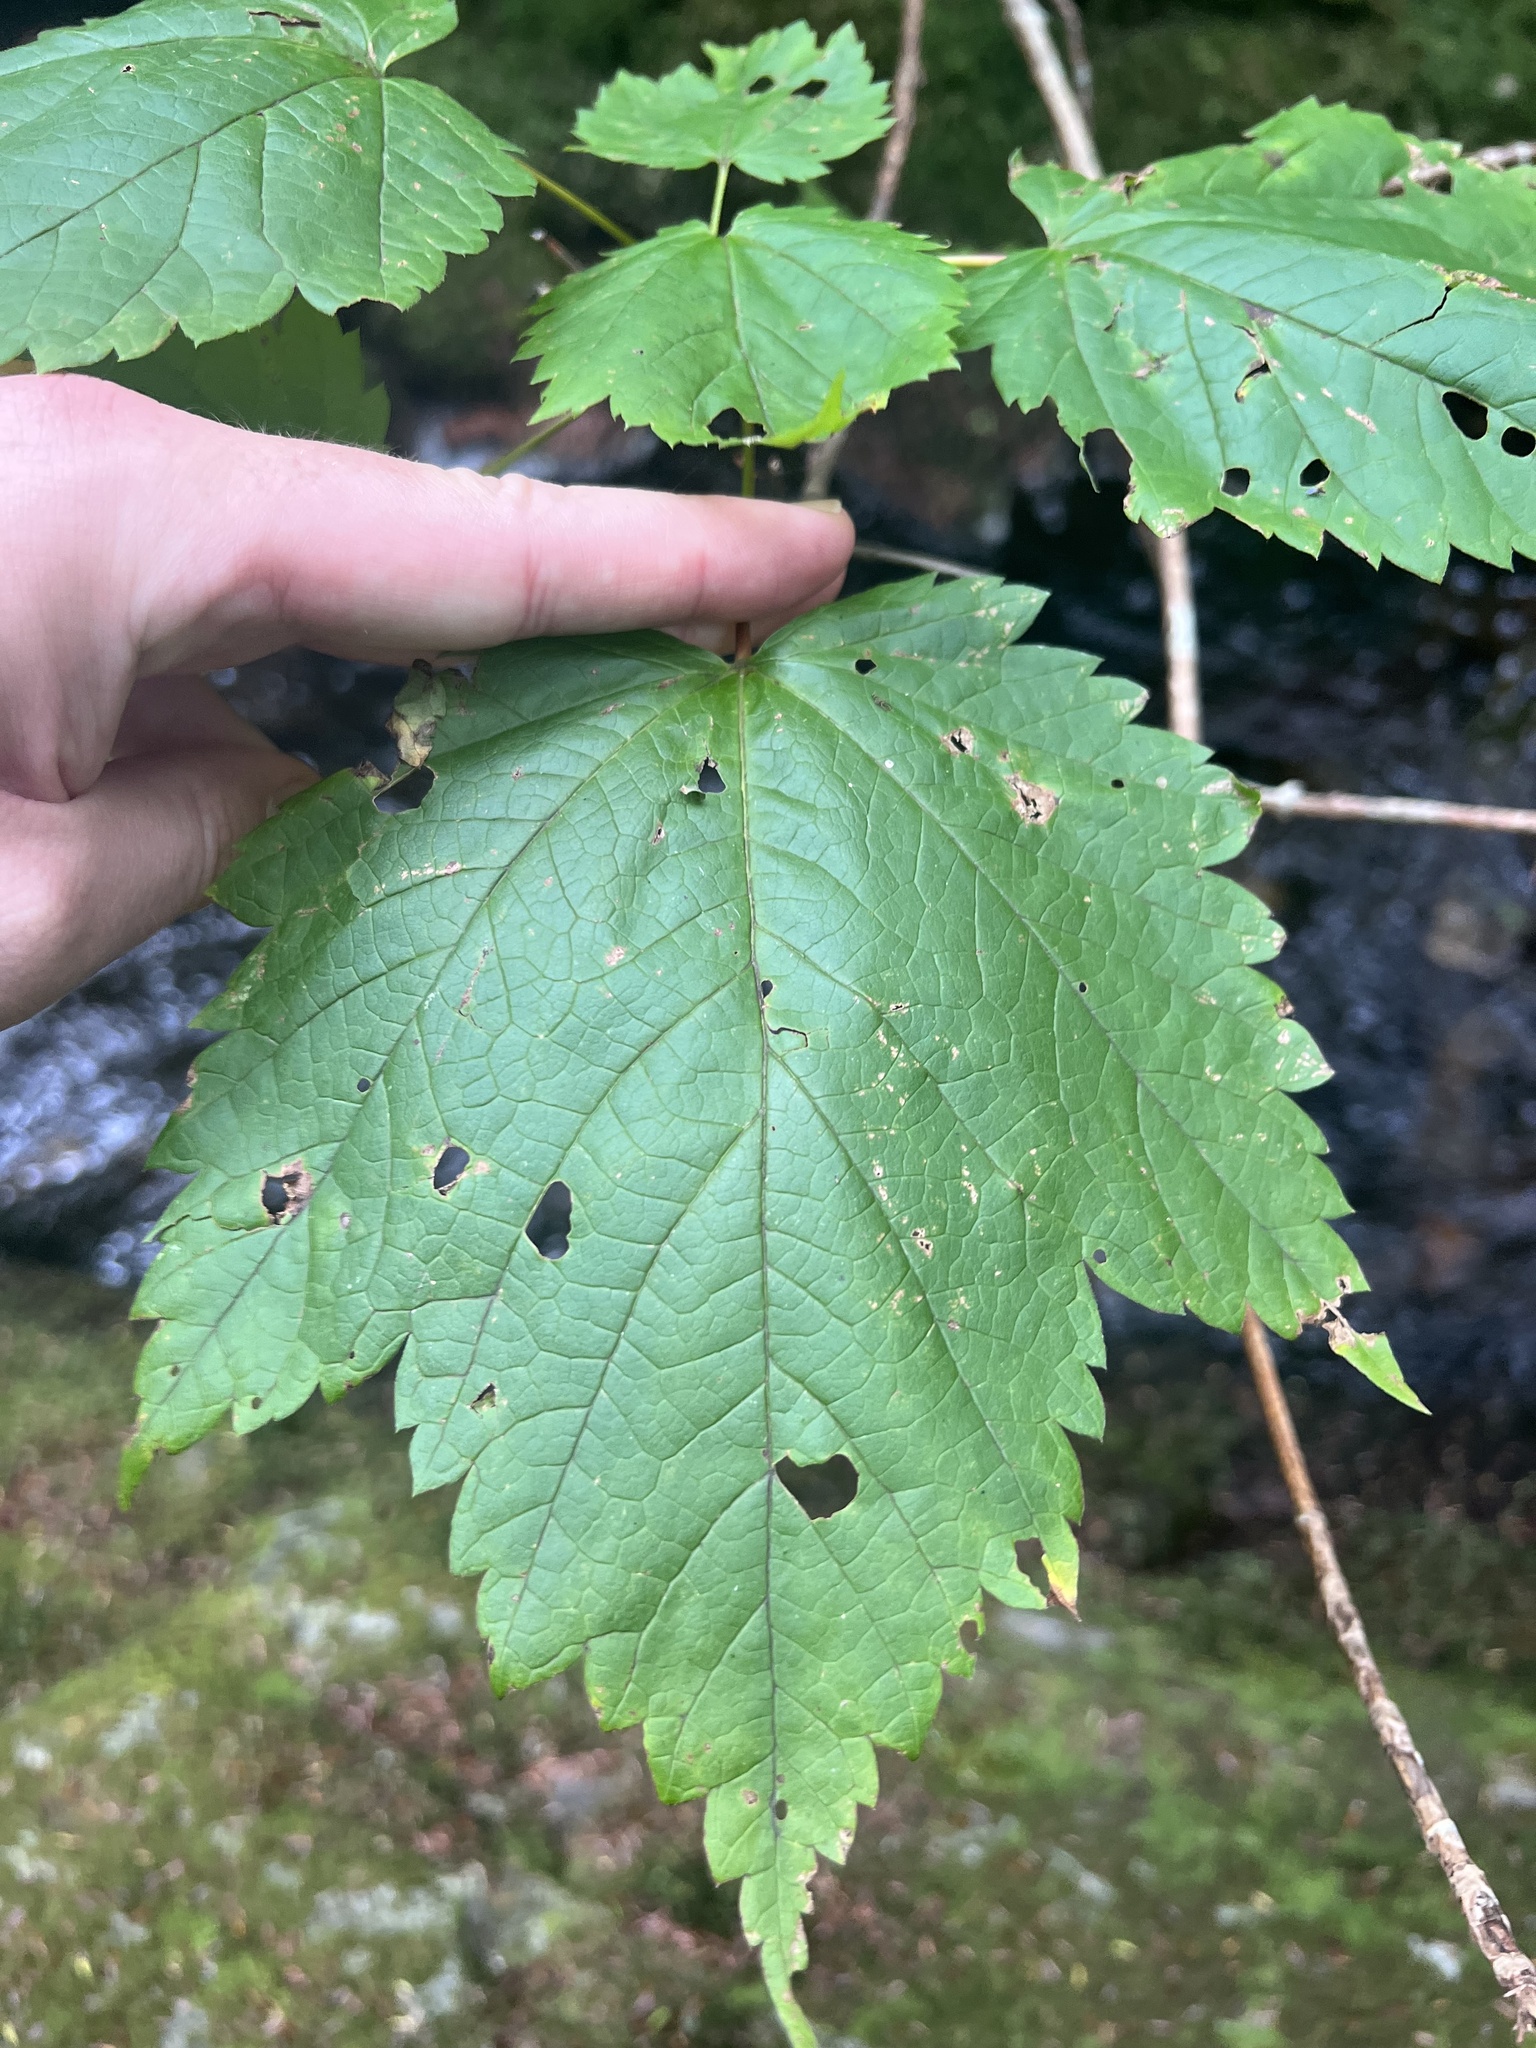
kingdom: Plantae
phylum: Tracheophyta
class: Magnoliopsida
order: Sapindales
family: Sapindaceae
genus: Acer
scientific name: Acer spicatum
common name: Mountain maple
